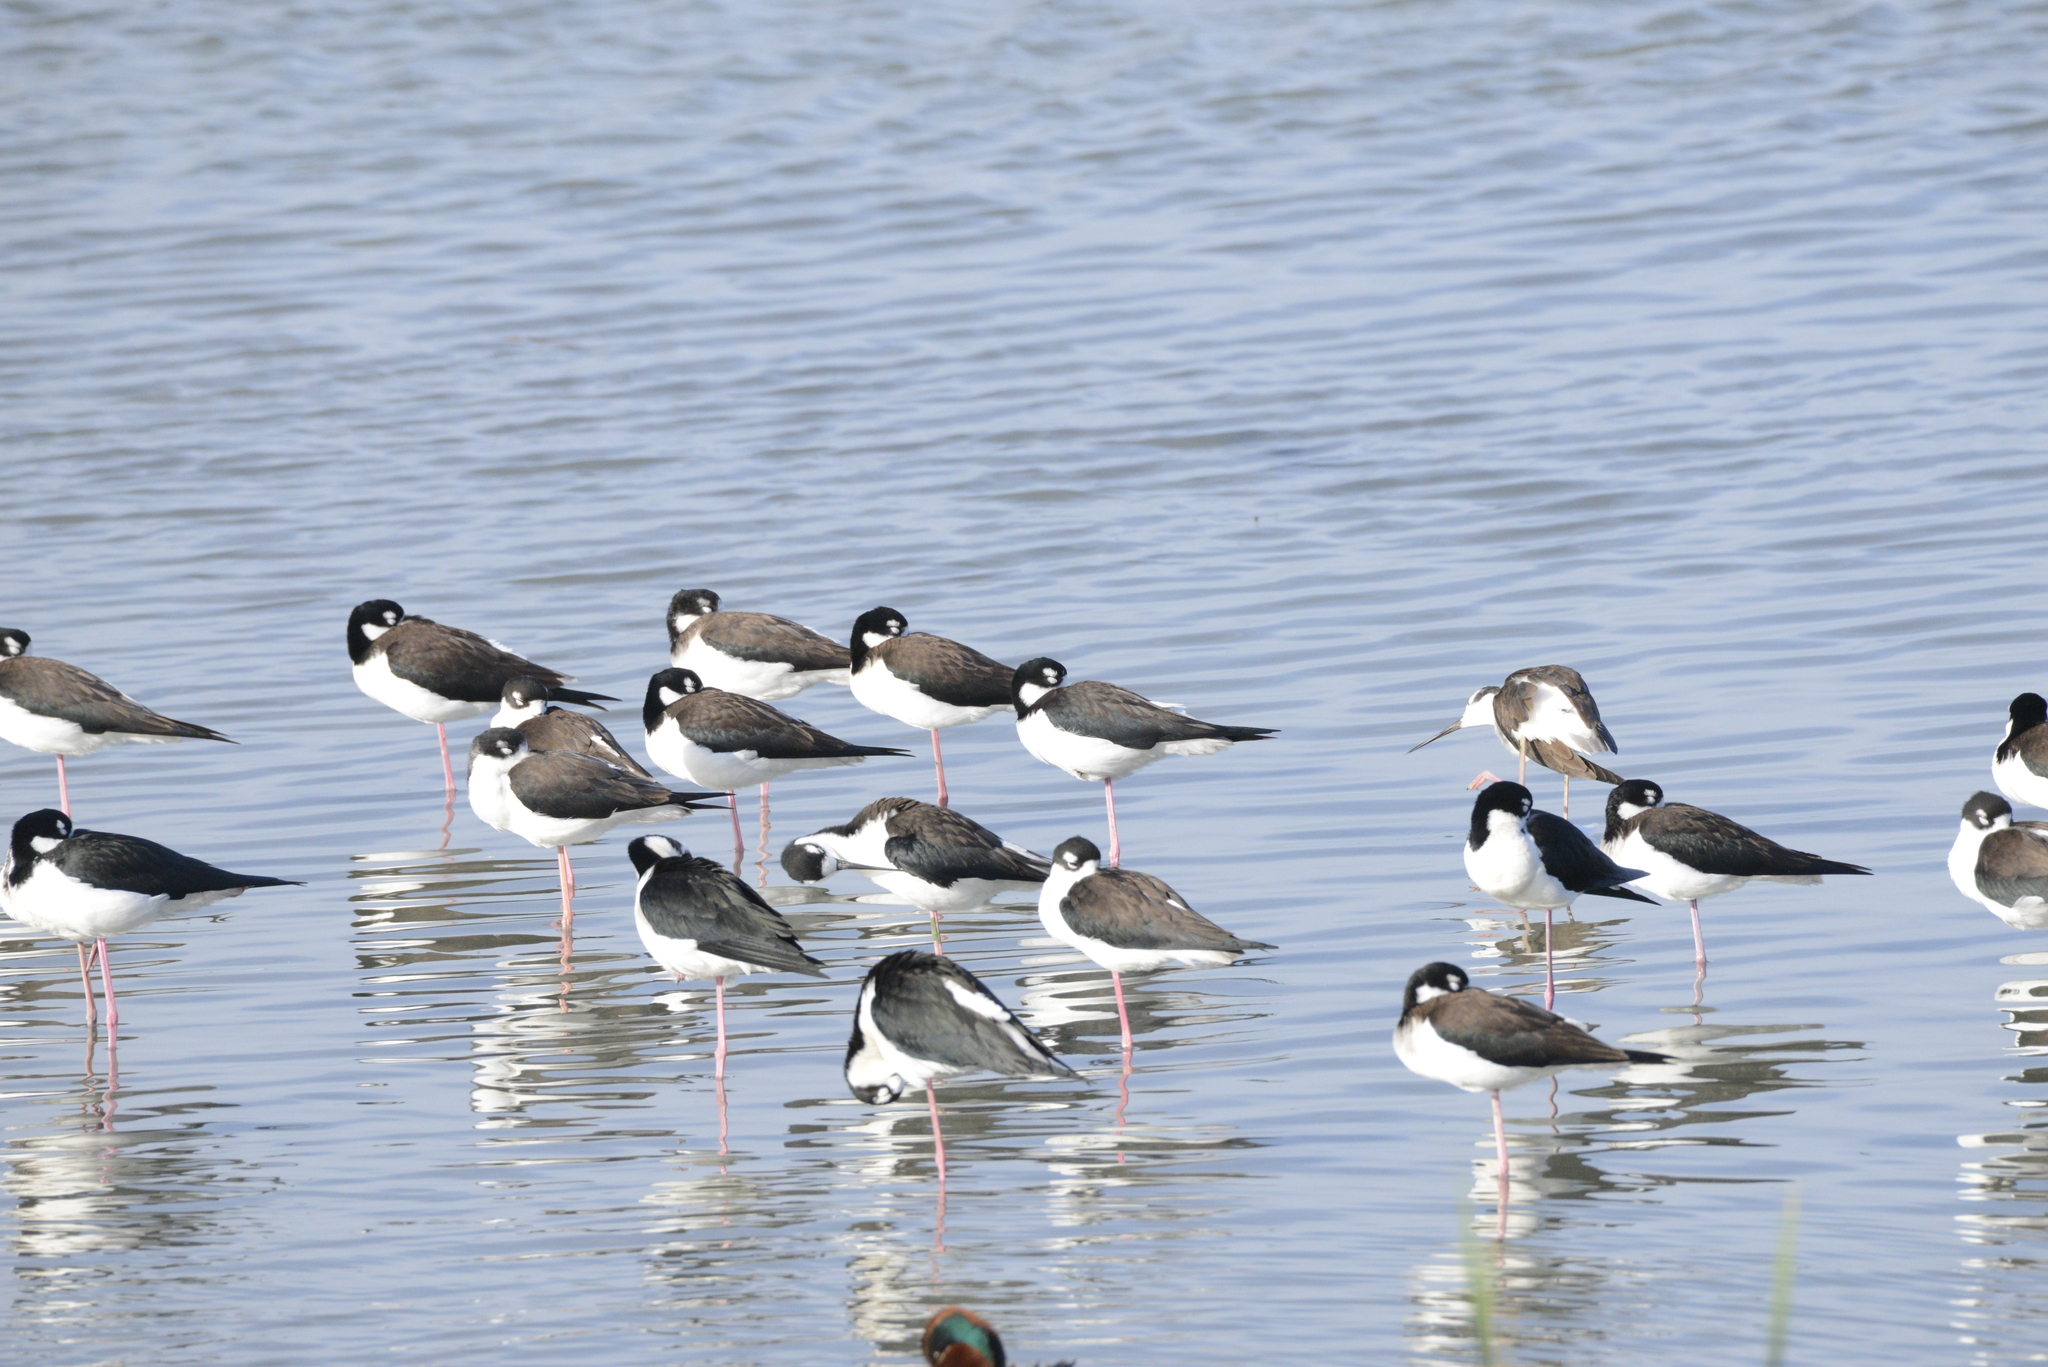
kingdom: Animalia
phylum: Chordata
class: Aves
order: Charadriiformes
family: Recurvirostridae
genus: Himantopus
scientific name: Himantopus mexicanus
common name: Black-necked stilt
